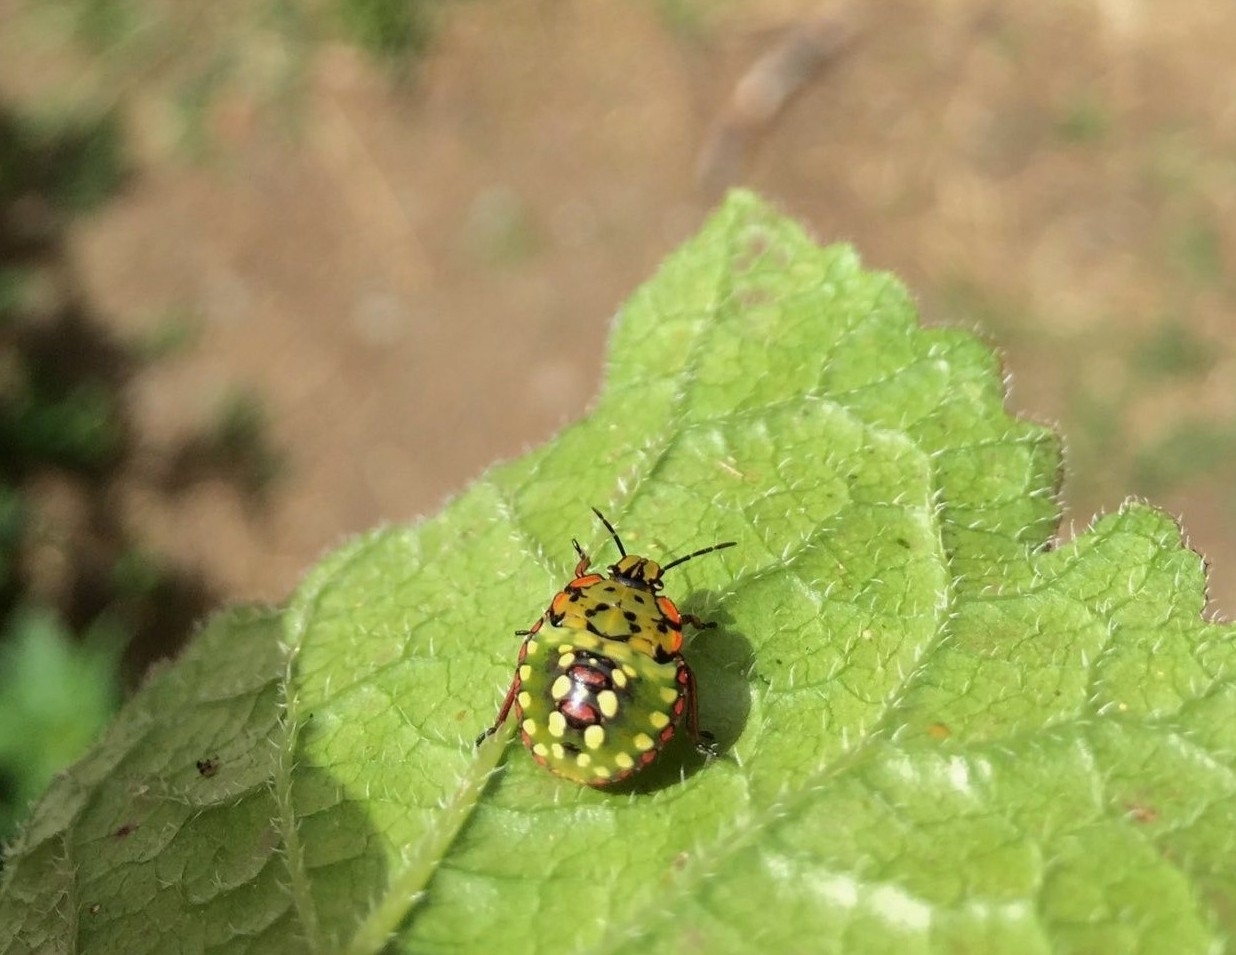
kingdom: Animalia
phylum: Arthropoda
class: Insecta
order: Hemiptera
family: Pentatomidae
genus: Nezara
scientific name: Nezara viridula
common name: Southern green stink bug
